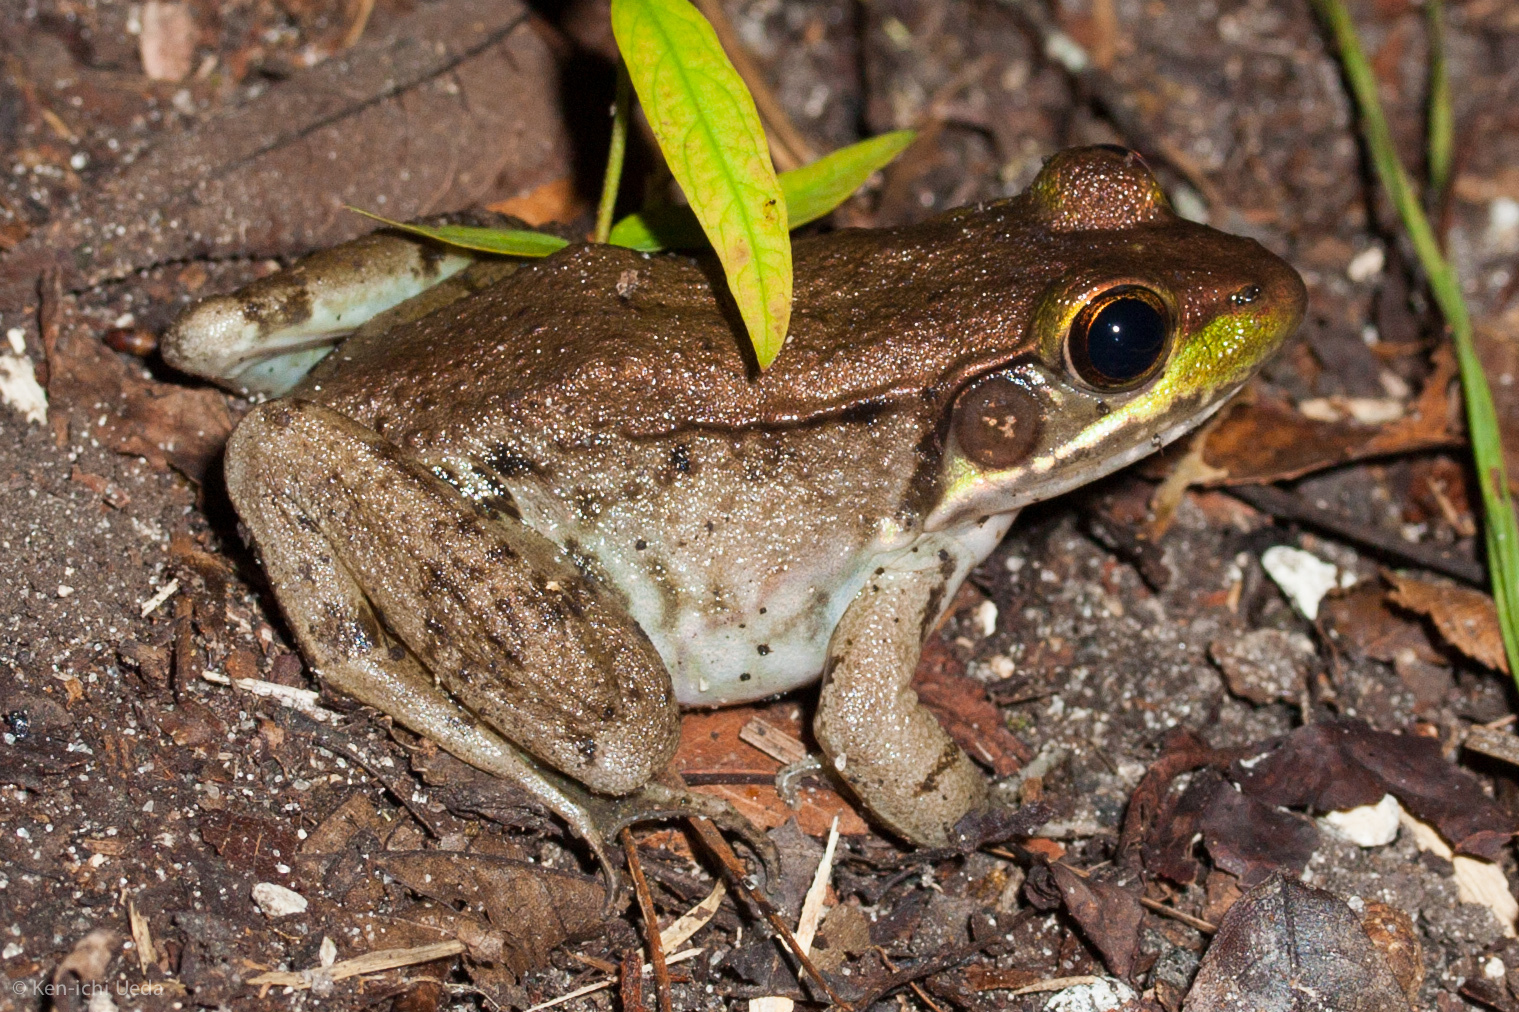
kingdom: Animalia
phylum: Chordata
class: Amphibia
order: Anura
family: Ranidae
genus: Lithobates
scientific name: Lithobates clamitans
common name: Green frog
